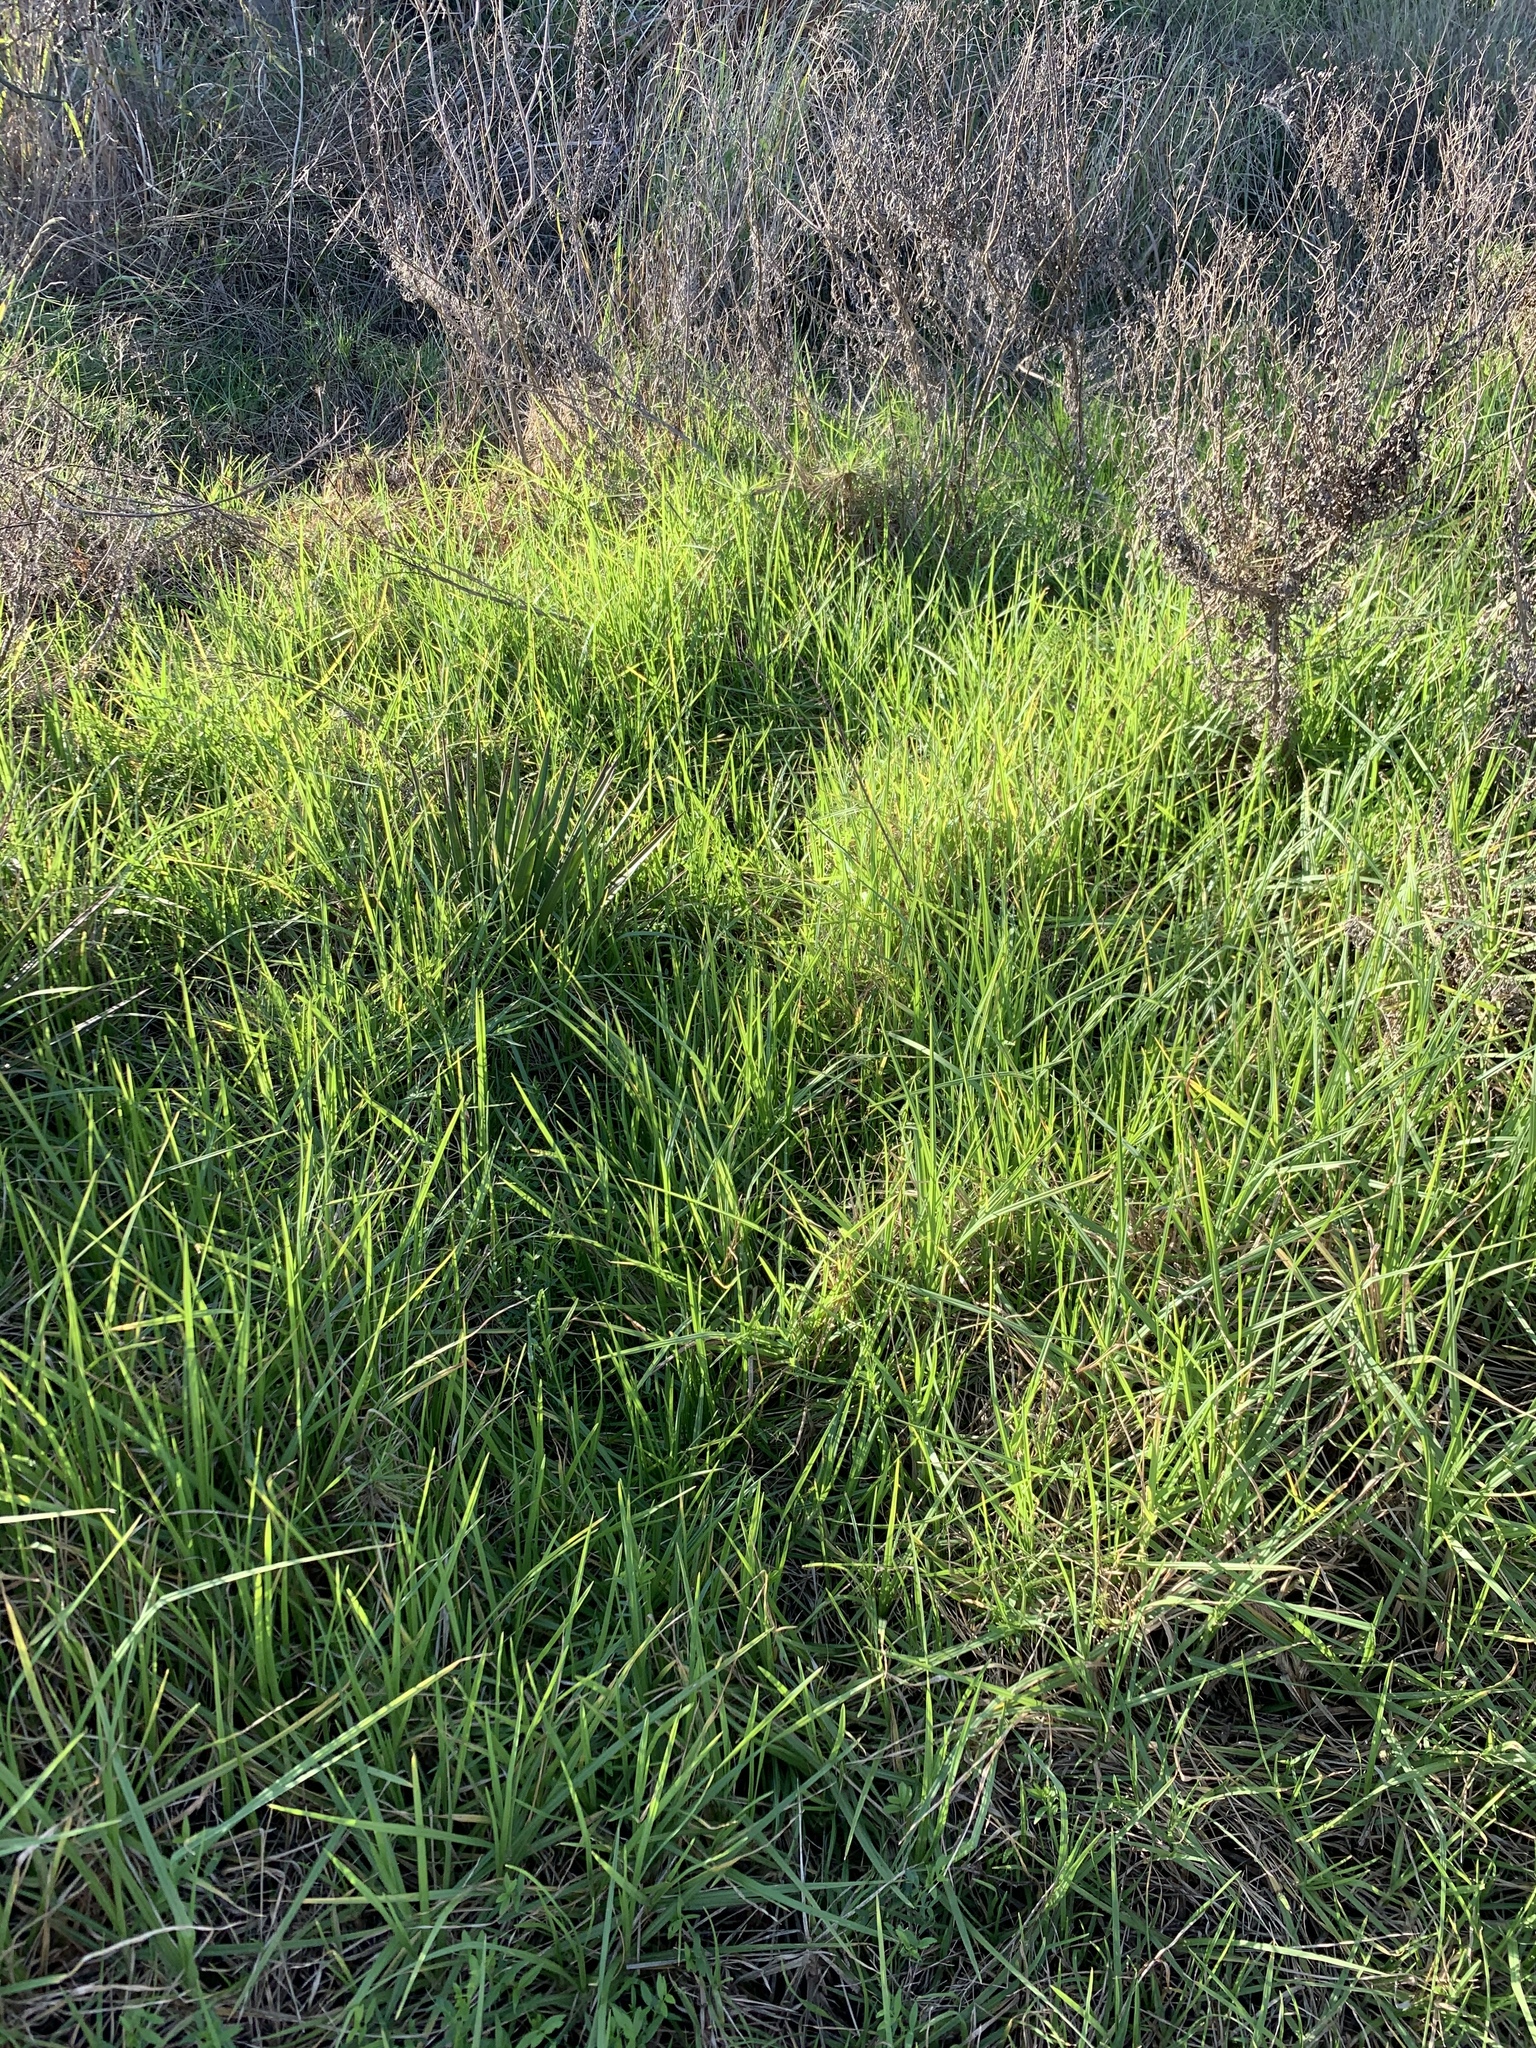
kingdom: Plantae
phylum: Tracheophyta
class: Liliopsida
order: Poales
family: Poaceae
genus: Cenchrus
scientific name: Cenchrus clandestinus
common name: Kikuyugrass
